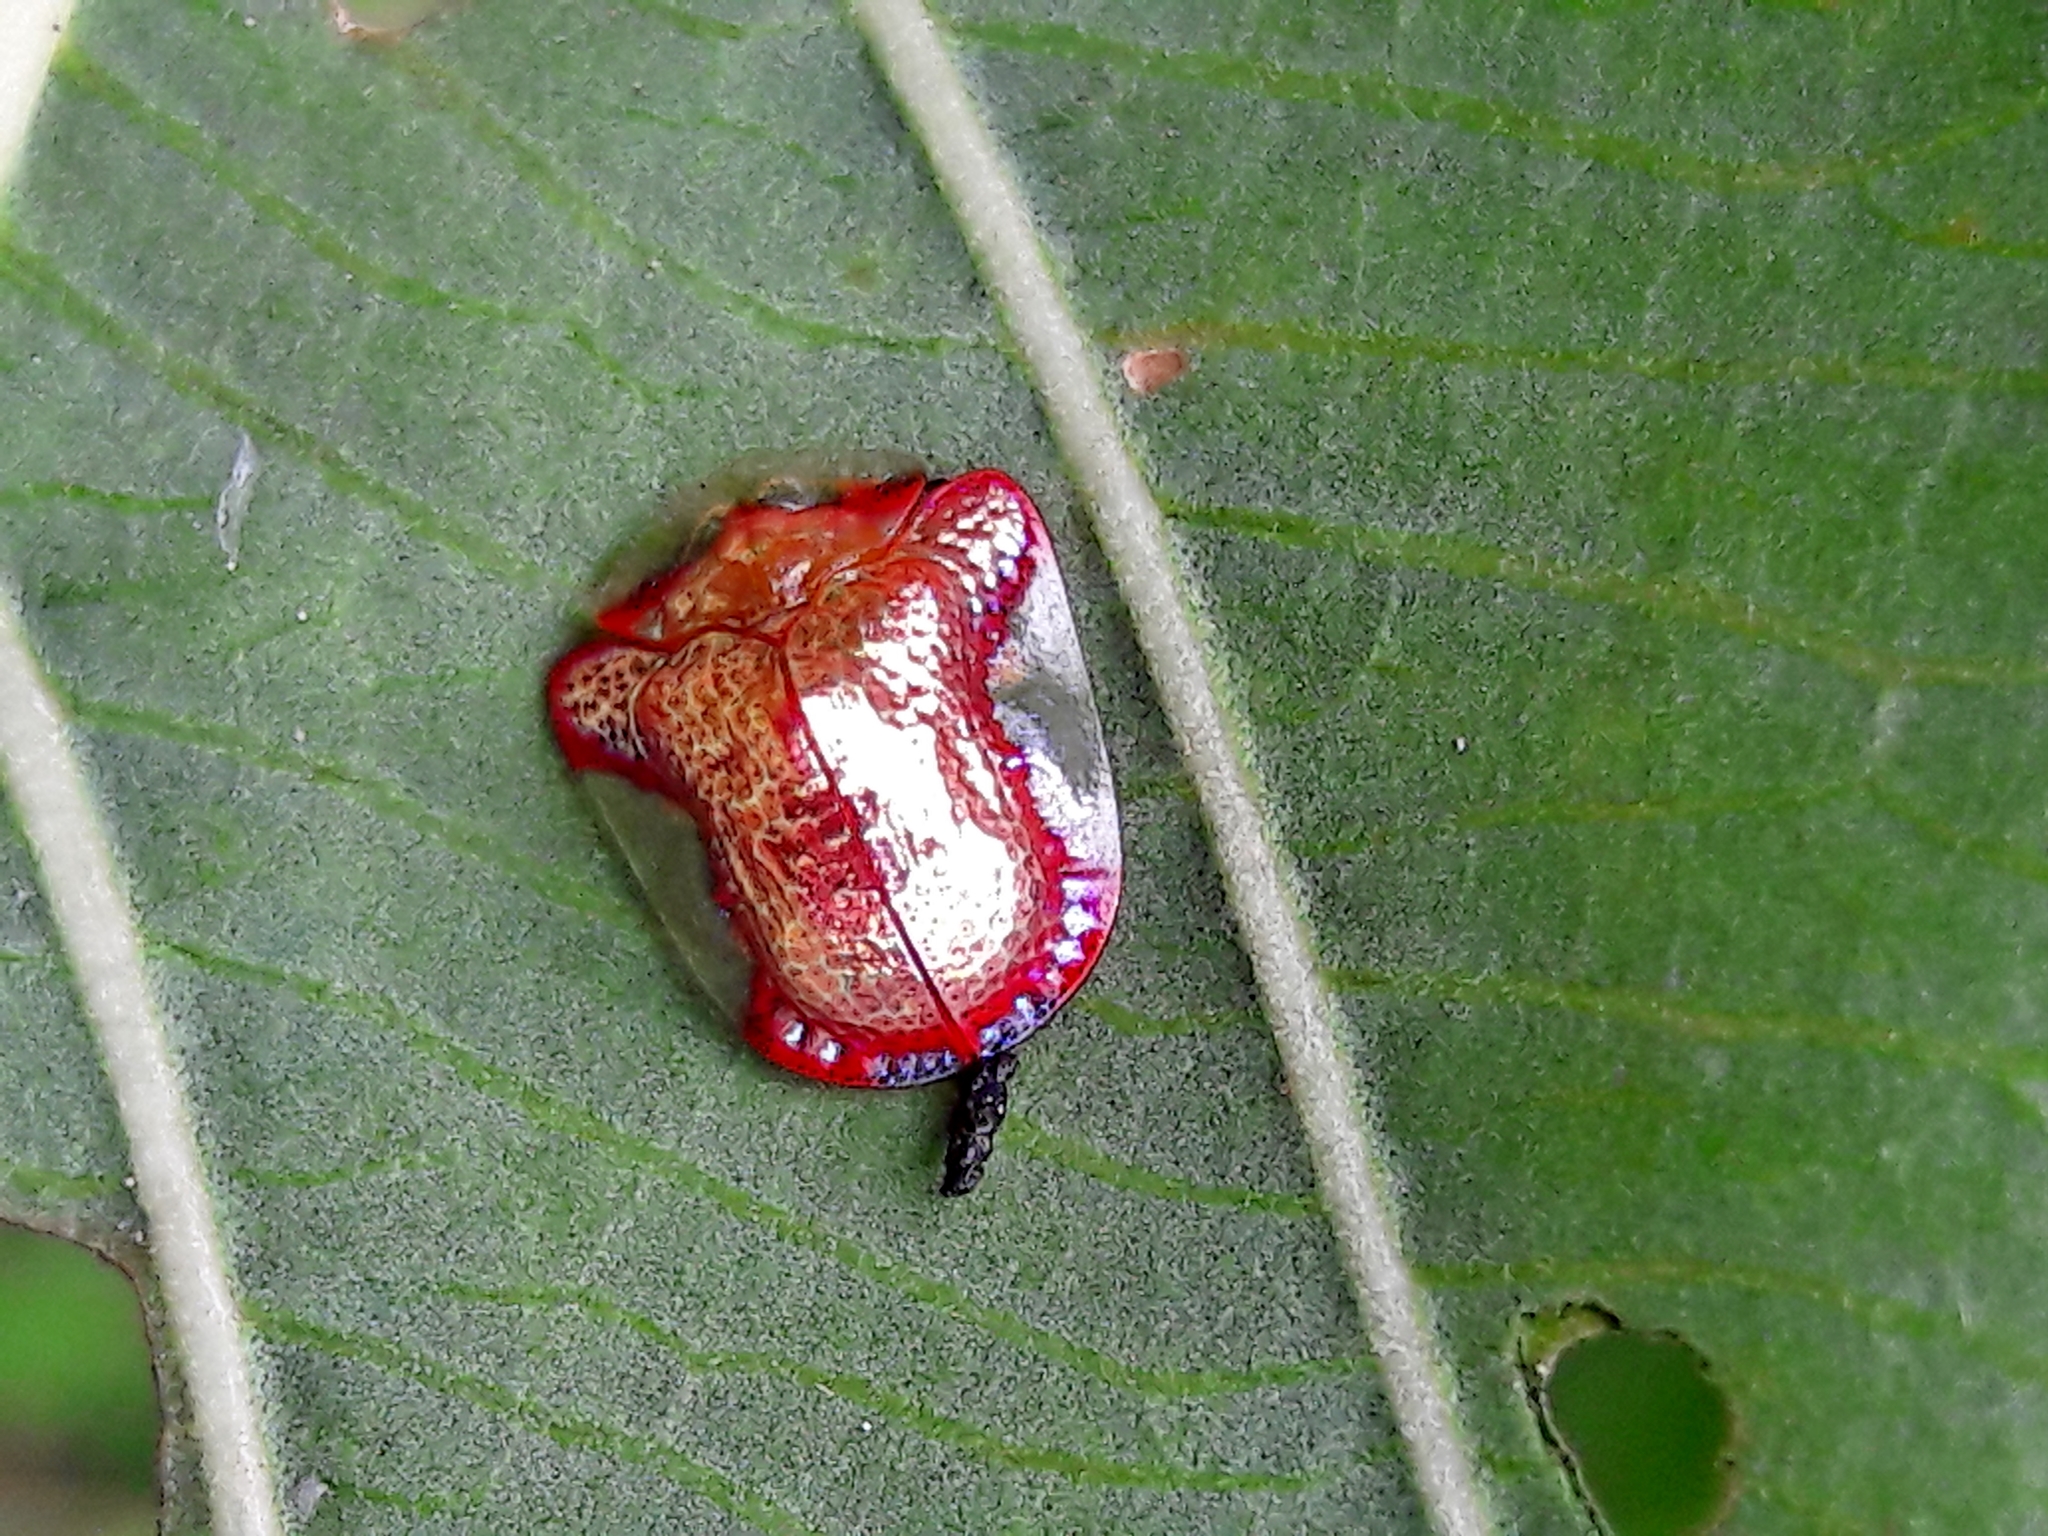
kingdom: Animalia
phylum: Arthropoda
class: Insecta
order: Coleoptera
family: Chrysomelidae
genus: Charidotella
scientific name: Charidotella rubicunda
